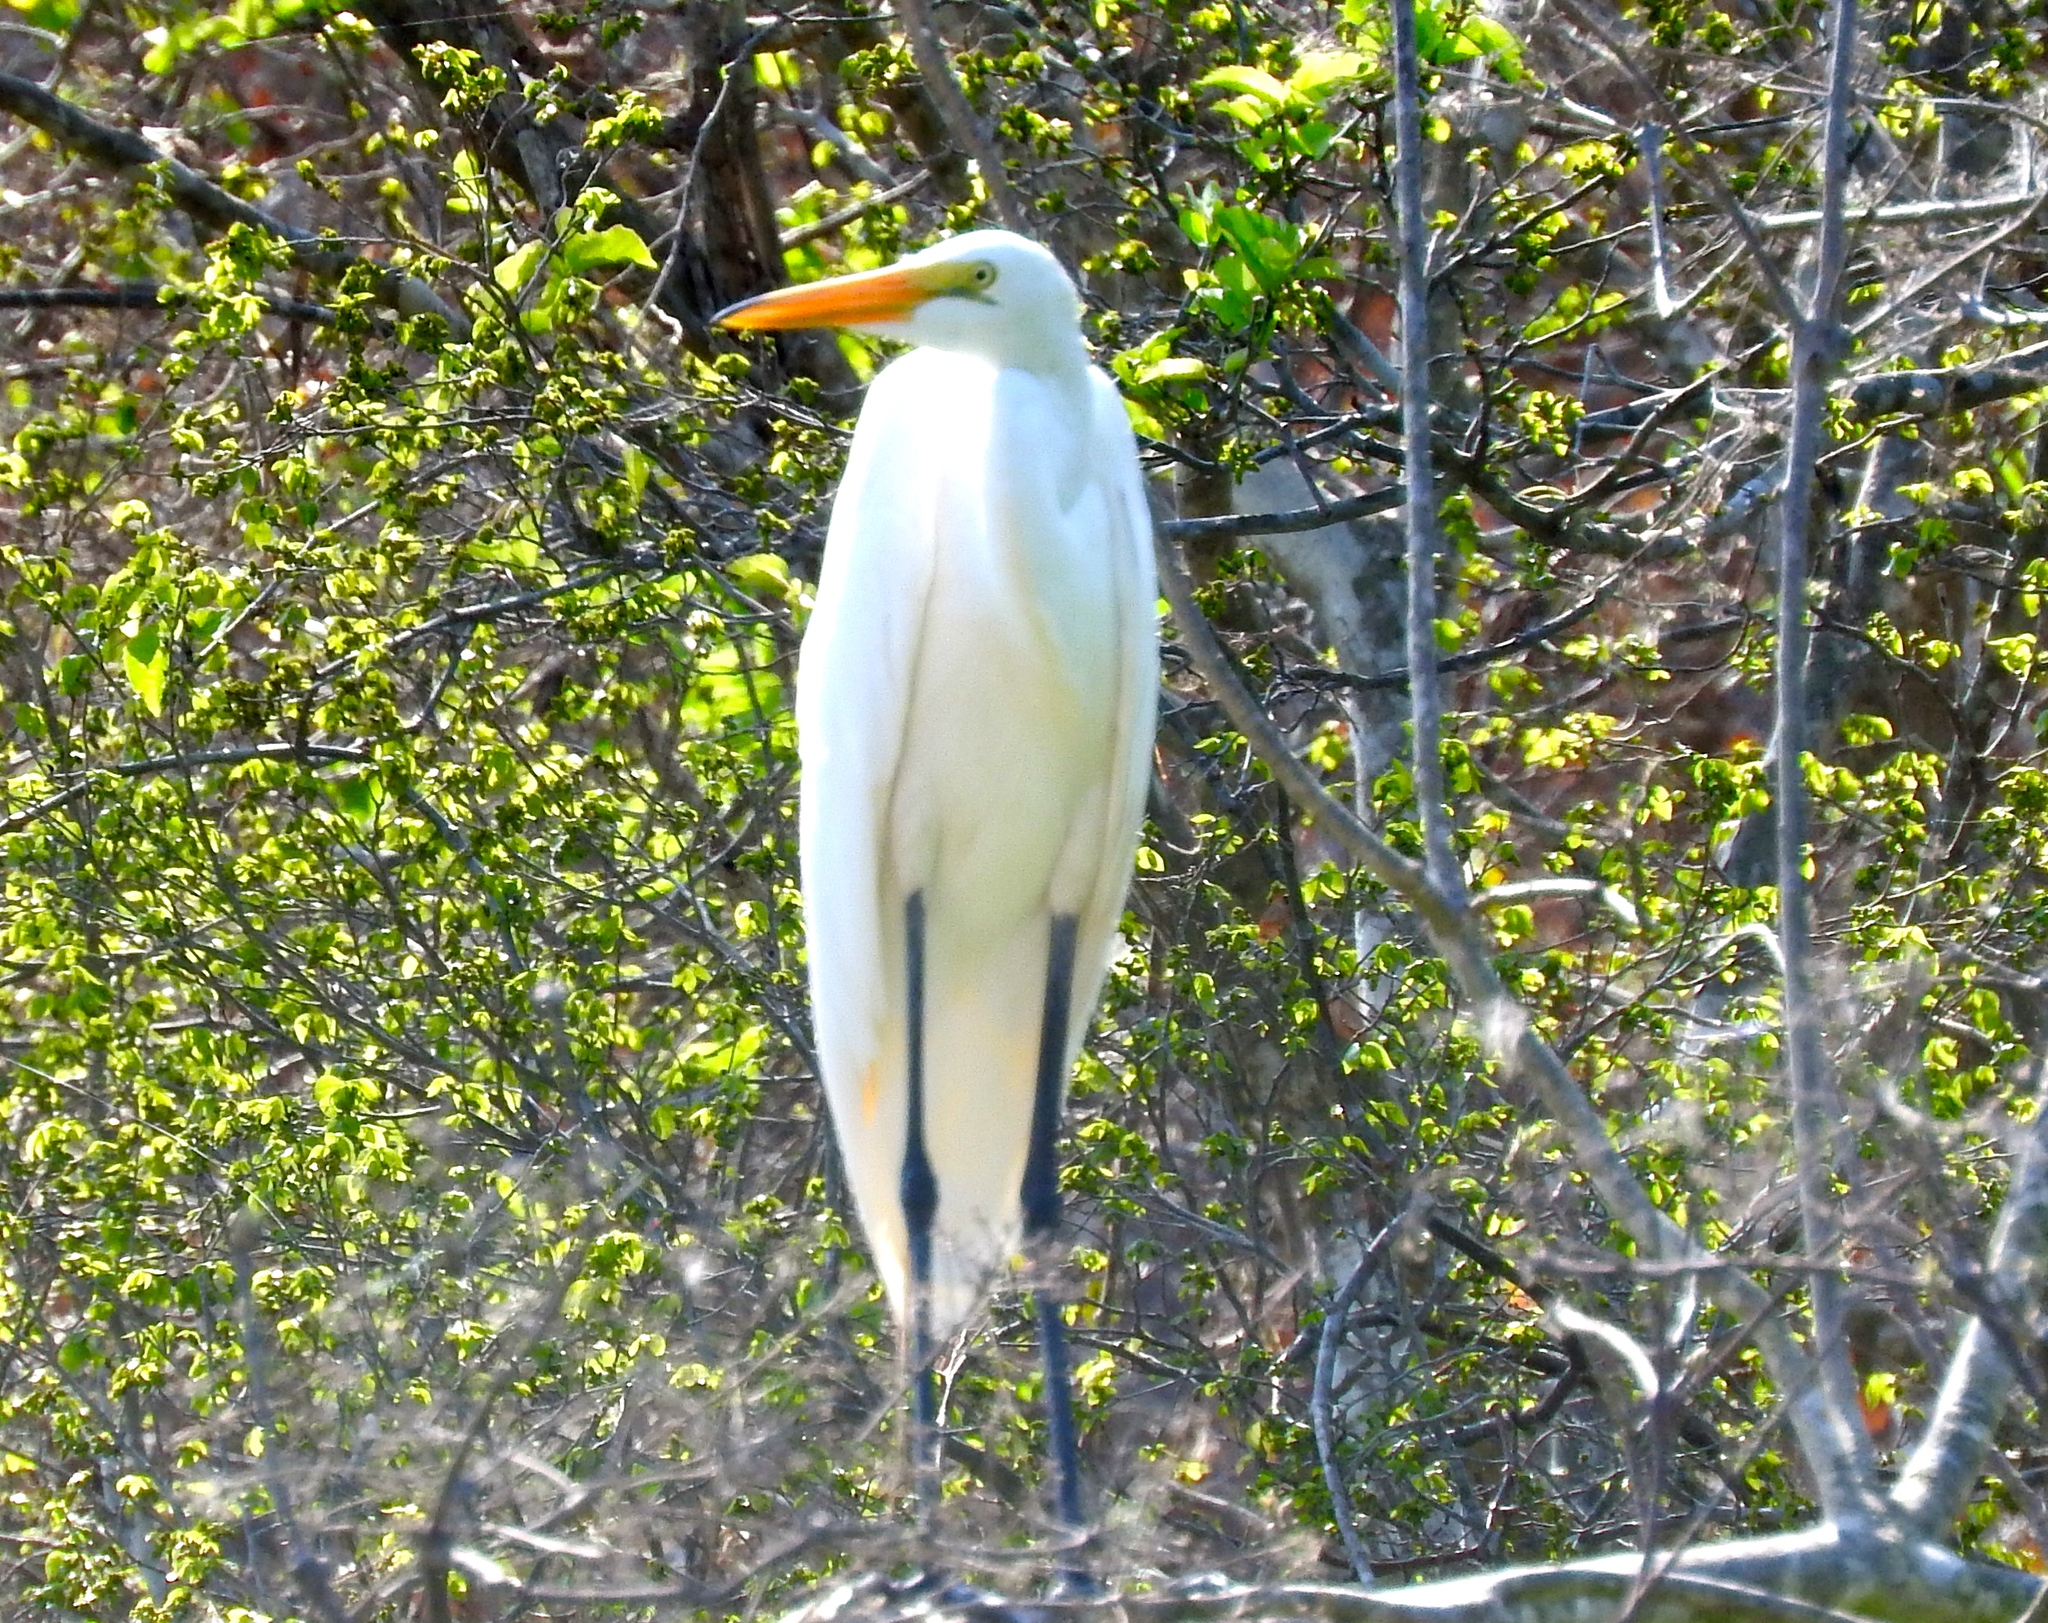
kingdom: Animalia
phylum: Chordata
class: Aves
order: Pelecaniformes
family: Ardeidae
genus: Ardea
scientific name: Ardea alba
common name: Great egret
